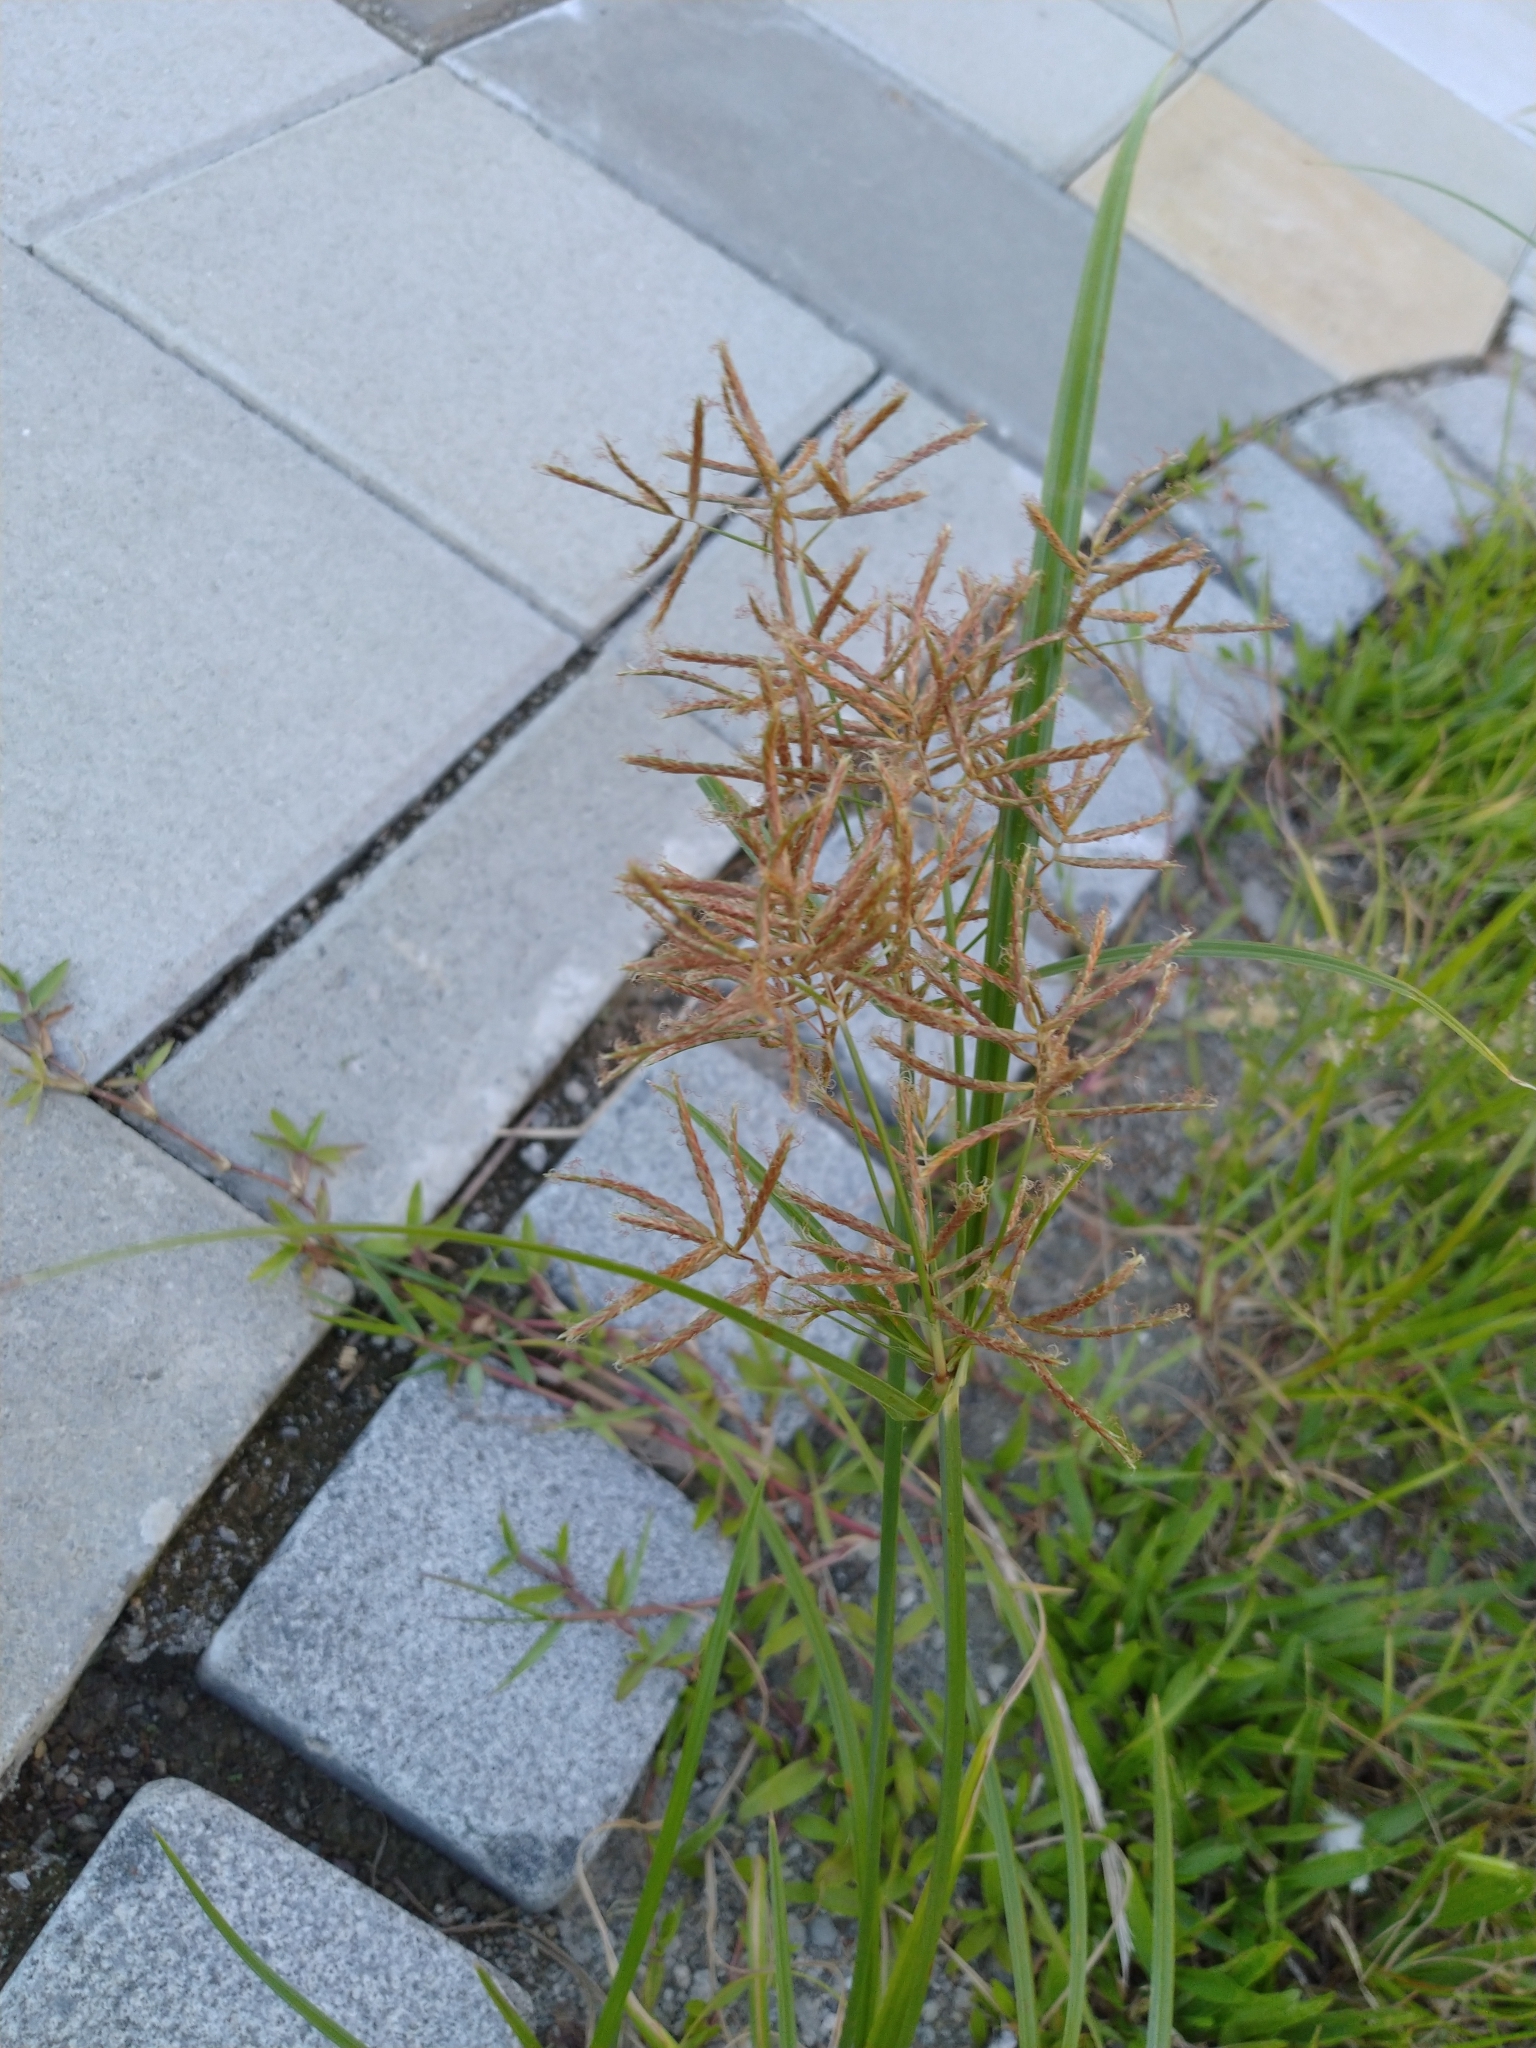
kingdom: Plantae
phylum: Tracheophyta
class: Liliopsida
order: Poales
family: Cyperaceae
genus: Cyperus
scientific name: Cyperus rotundus
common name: Nutgrass
